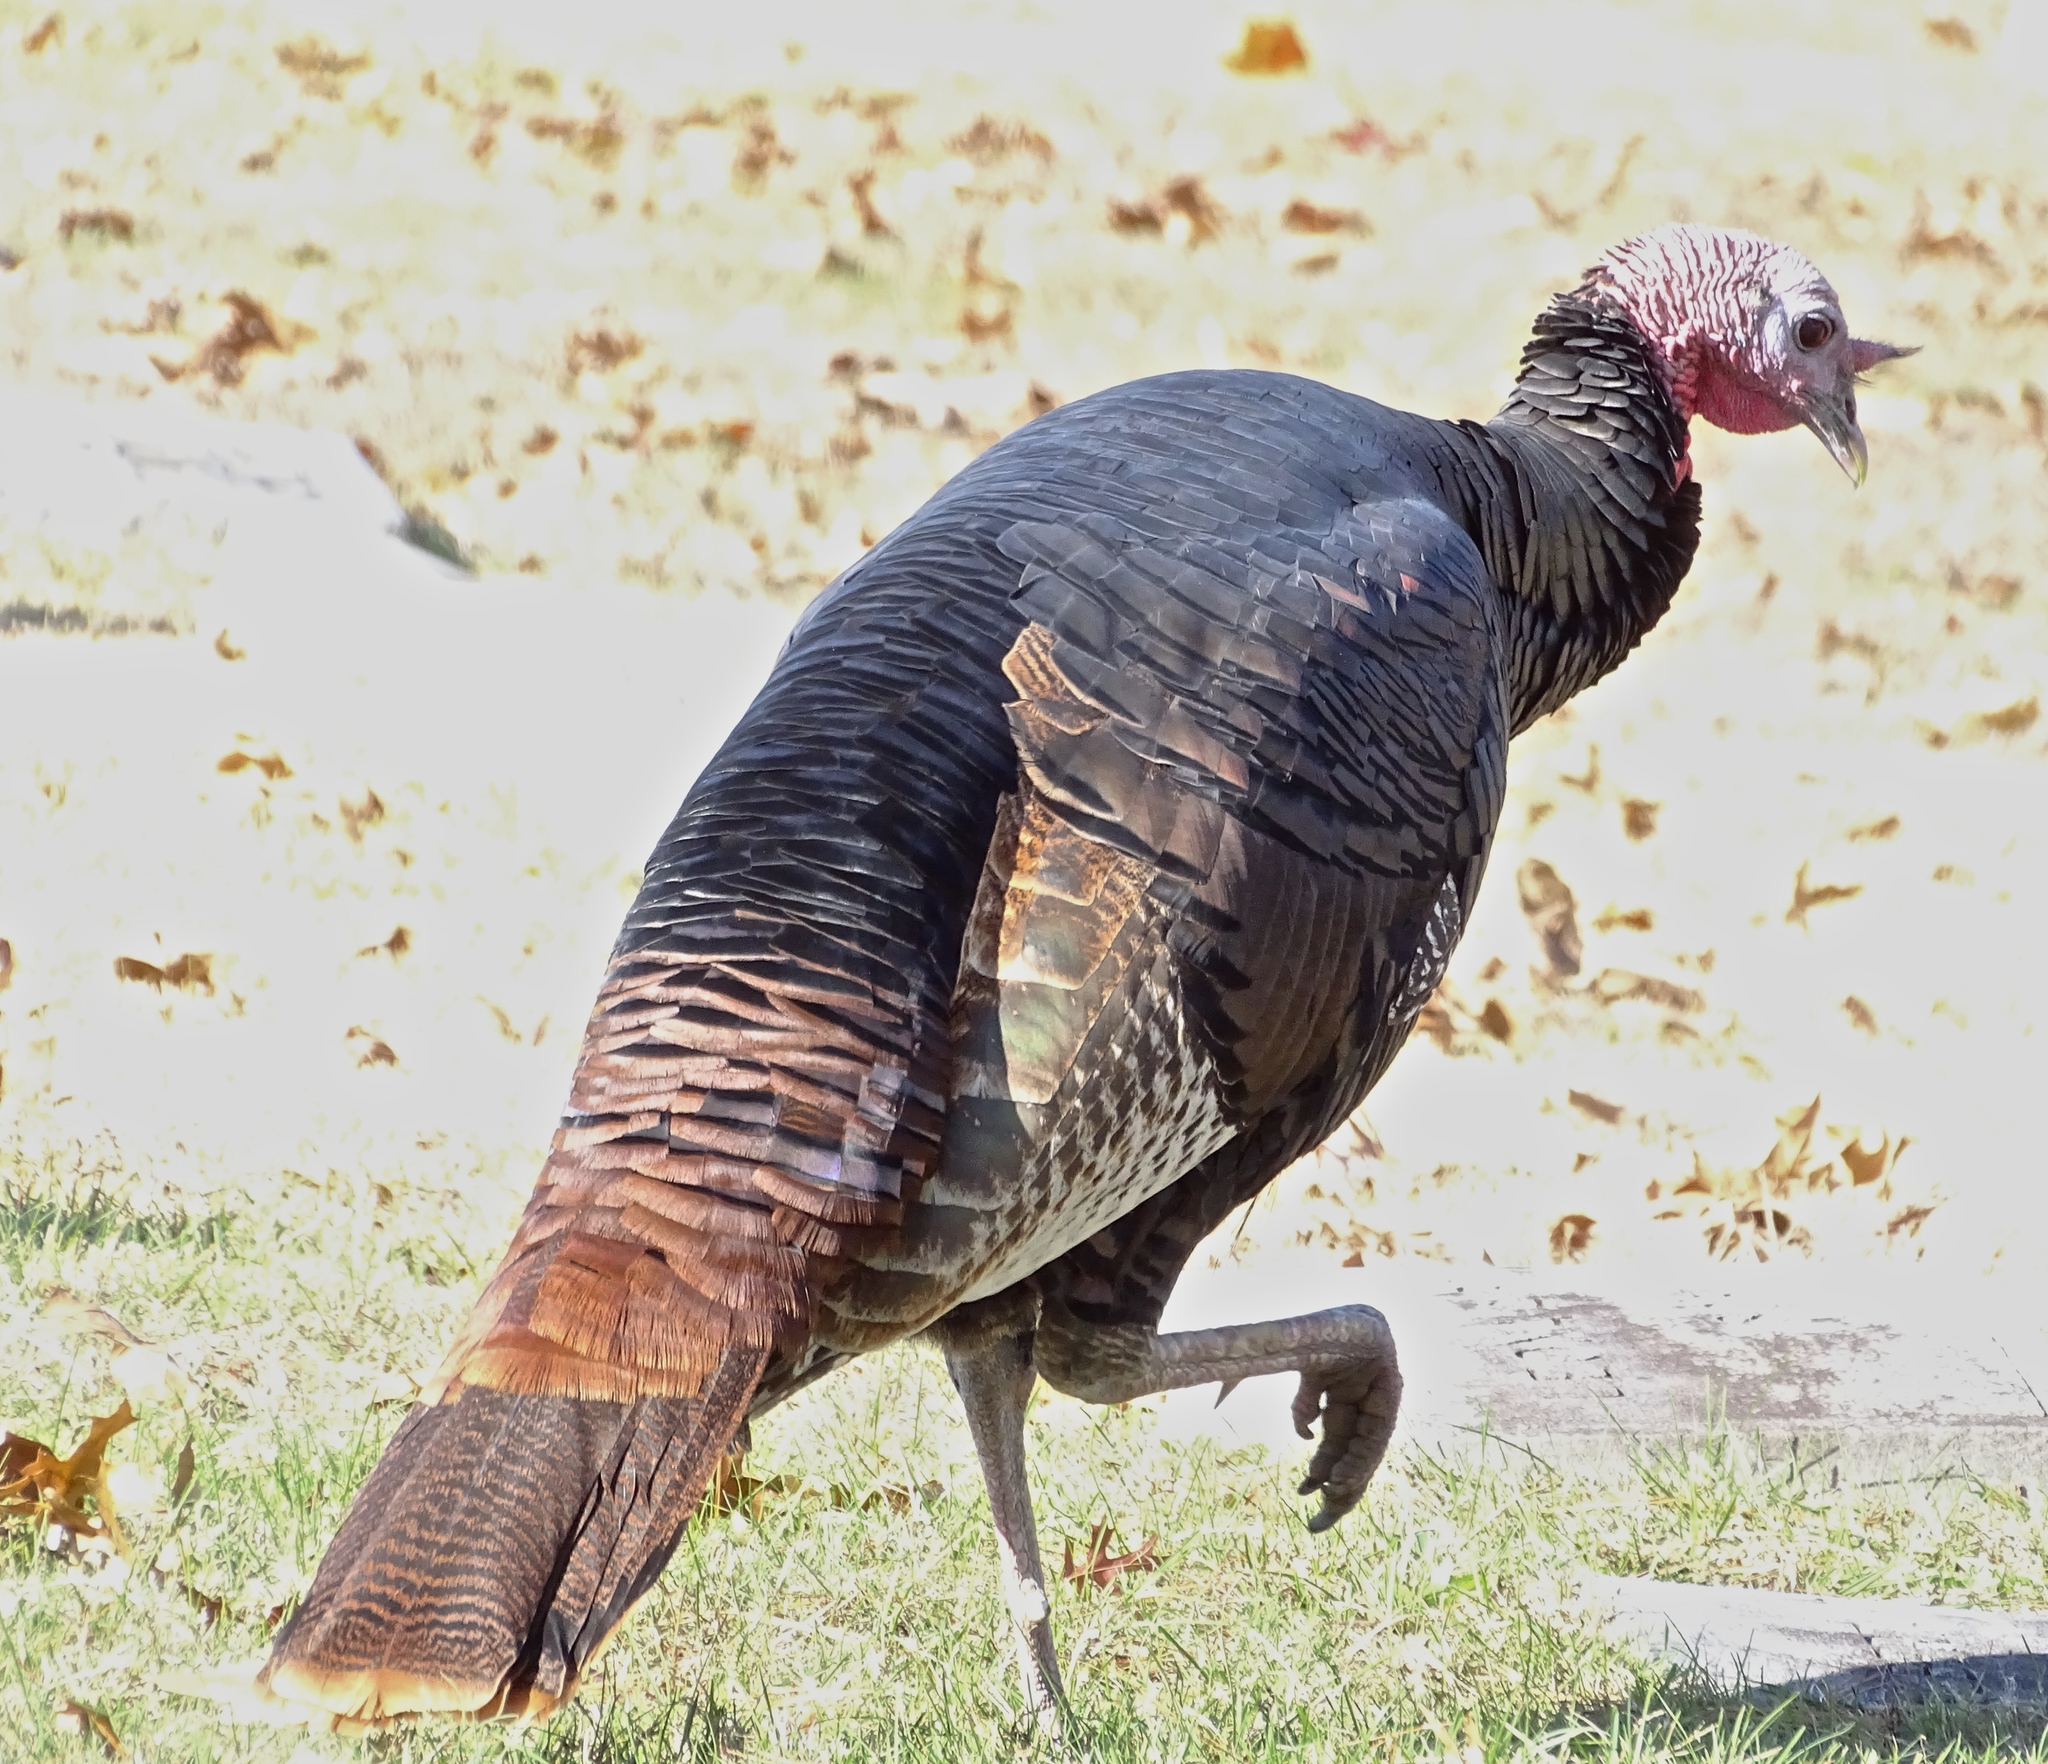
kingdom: Animalia
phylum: Chordata
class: Aves
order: Galliformes
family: Phasianidae
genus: Meleagris
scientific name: Meleagris gallopavo
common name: Wild turkey
